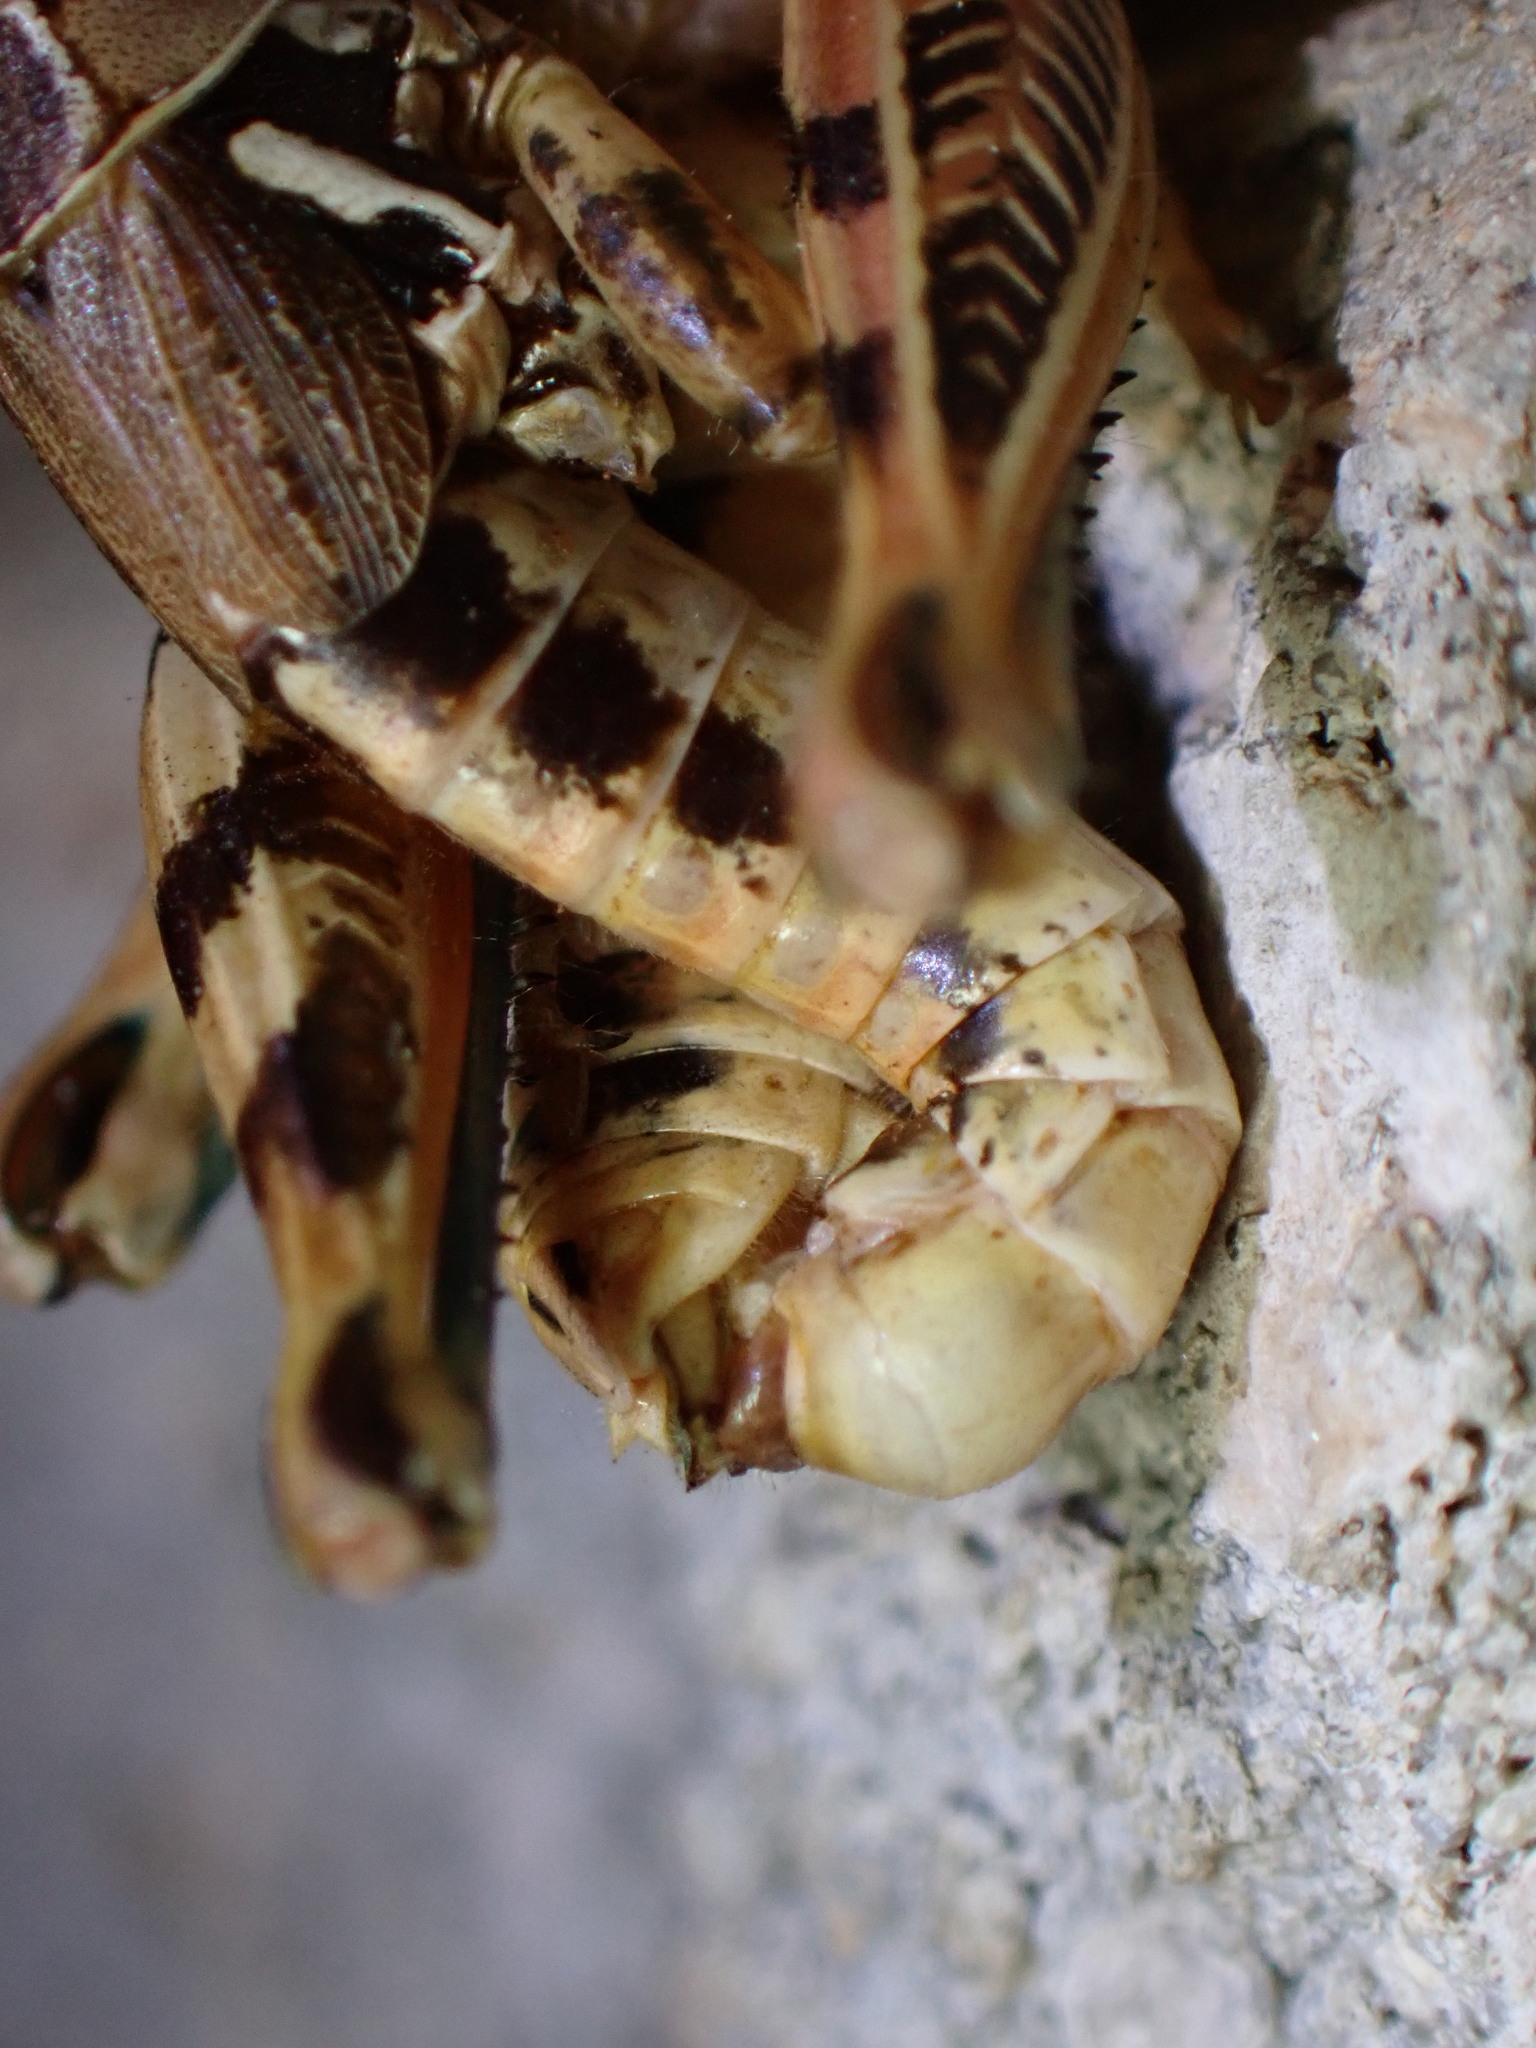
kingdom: Animalia
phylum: Arthropoda
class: Insecta
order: Orthoptera
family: Acrididae
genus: Oedaleonotus
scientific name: Oedaleonotus enigma
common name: Valley grasshopper
